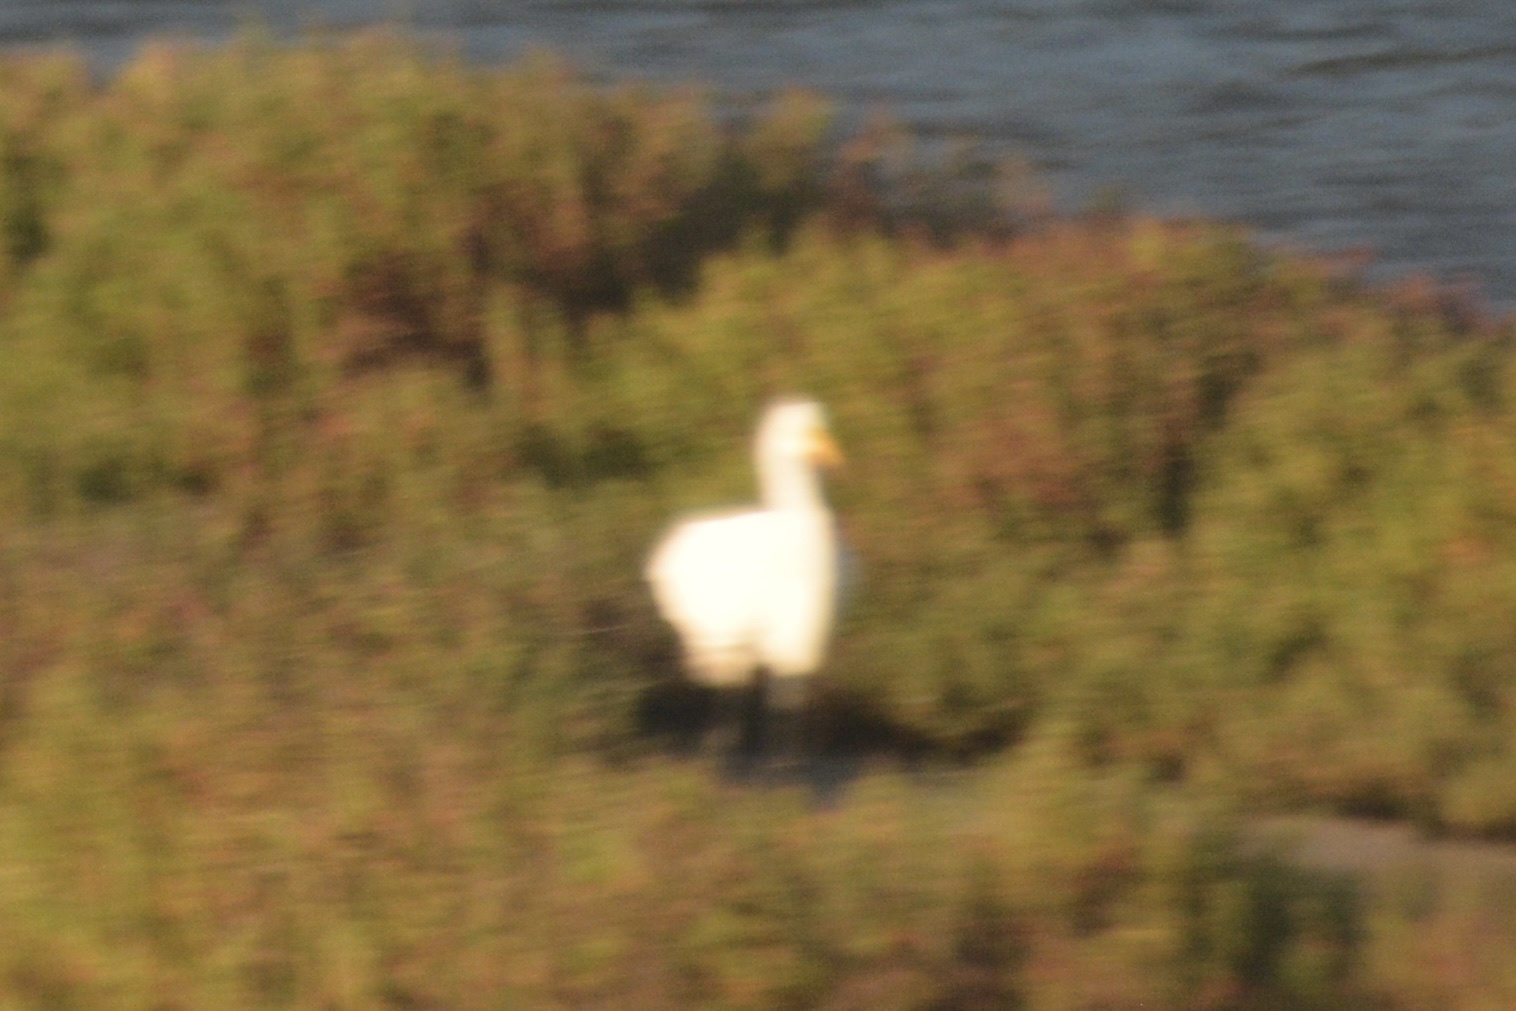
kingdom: Animalia
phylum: Chordata
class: Aves
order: Pelecaniformes
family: Ardeidae
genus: Ardea
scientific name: Ardea alba
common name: Great egret
